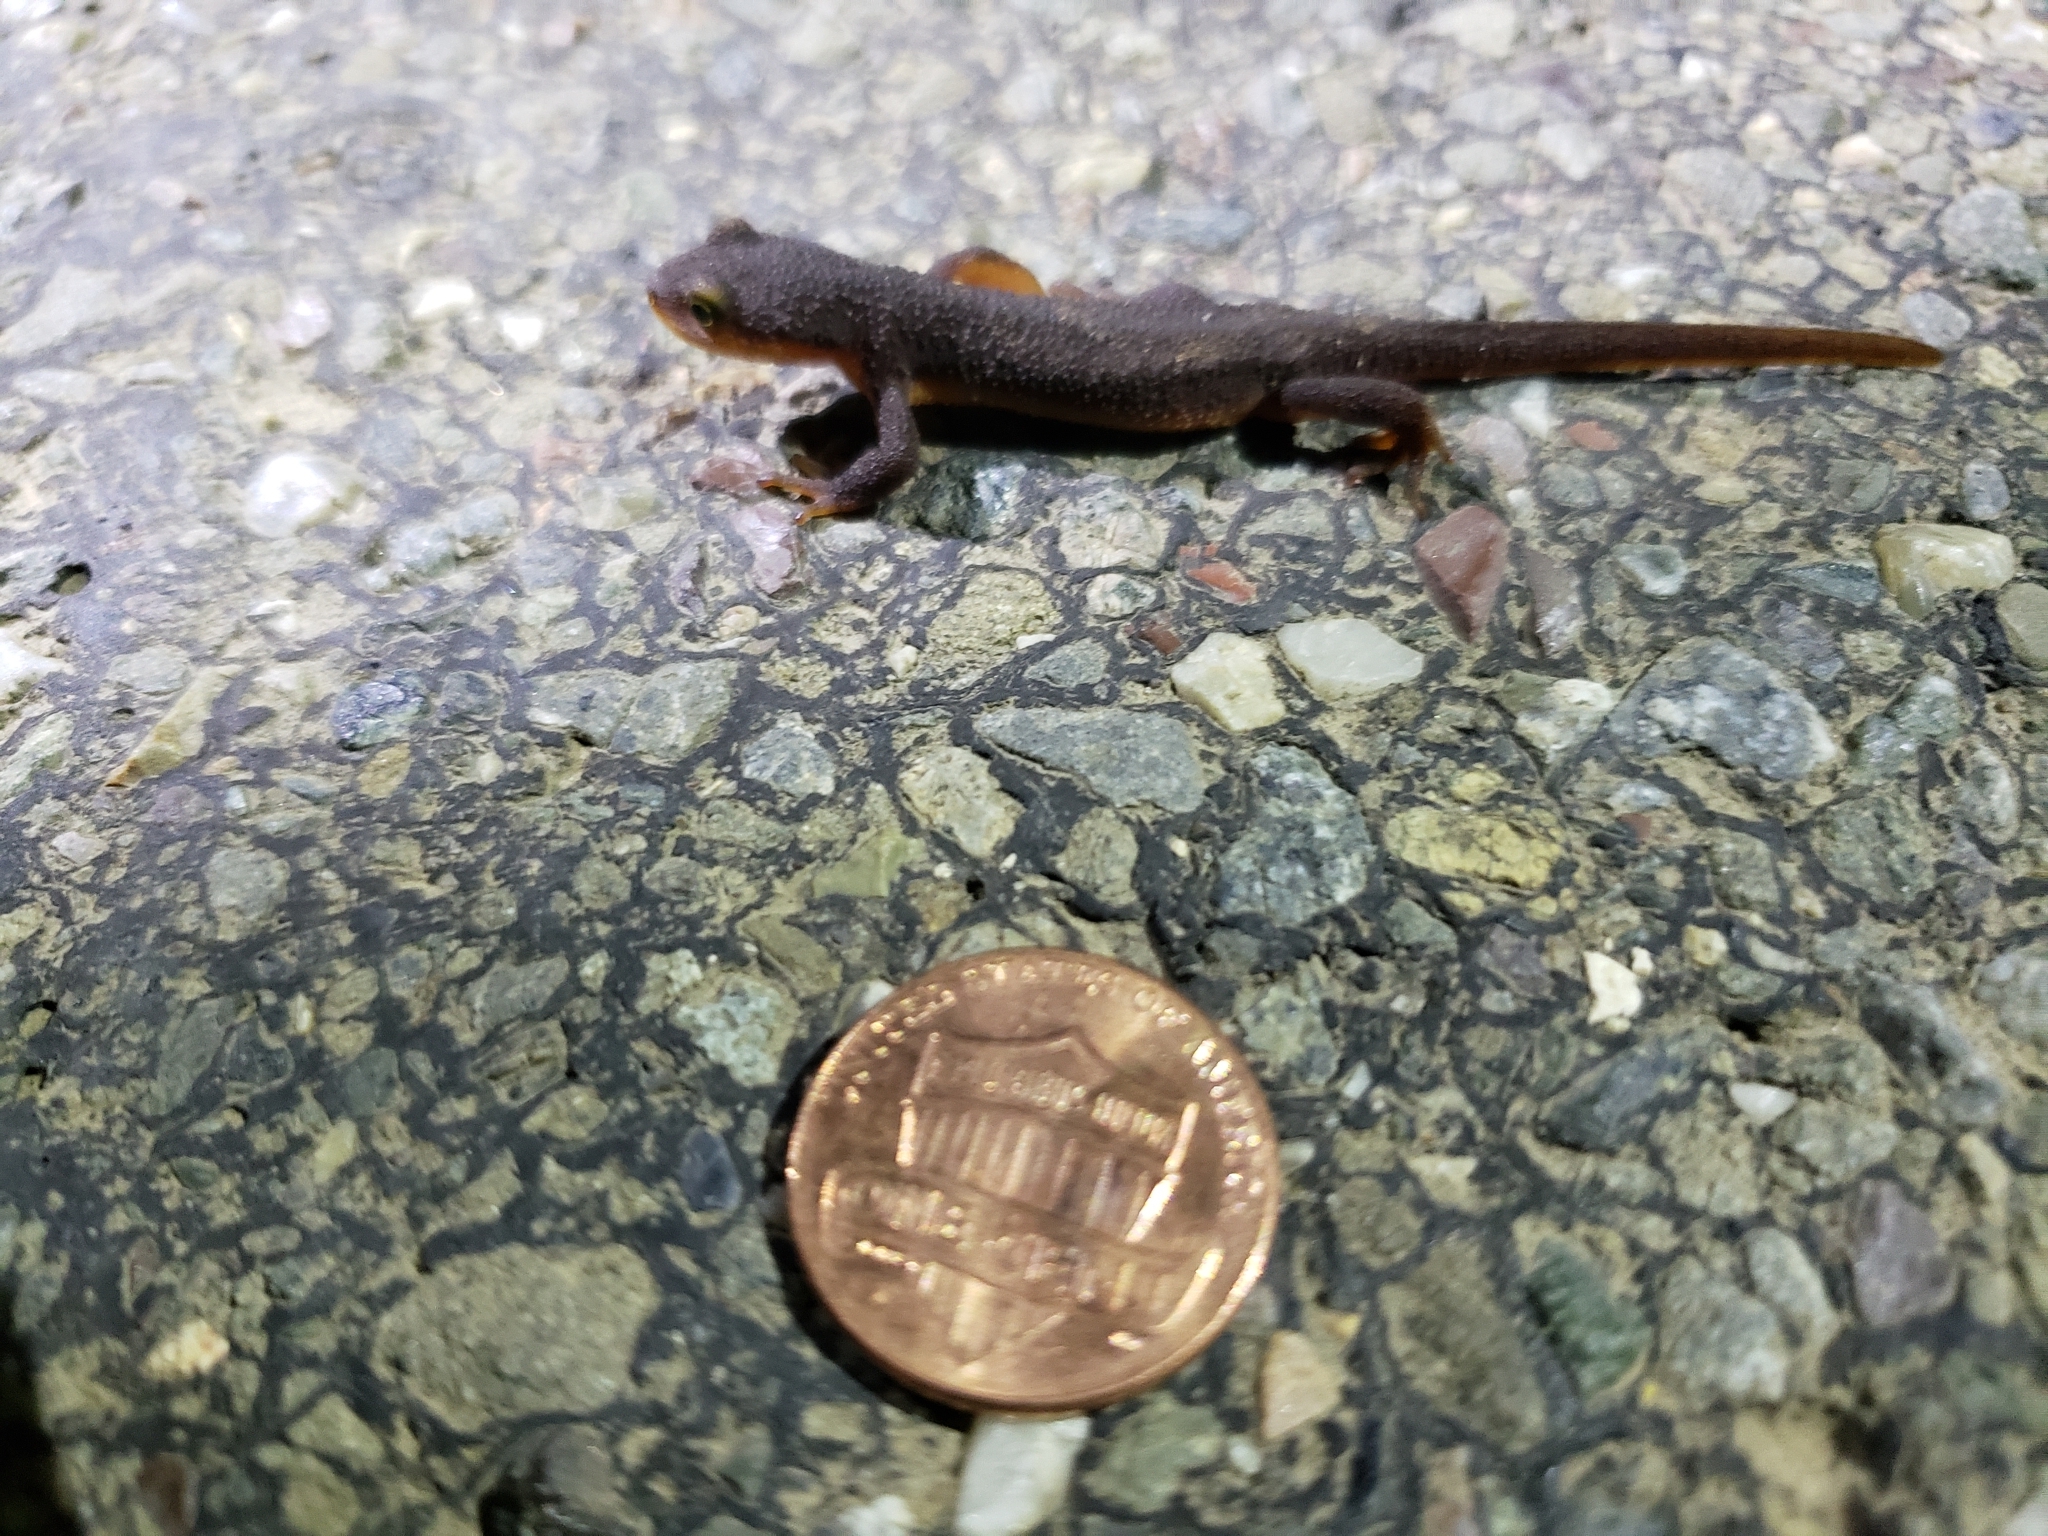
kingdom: Animalia
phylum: Chordata
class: Amphibia
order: Caudata
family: Salamandridae
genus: Taricha
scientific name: Taricha torosa
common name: California newt
